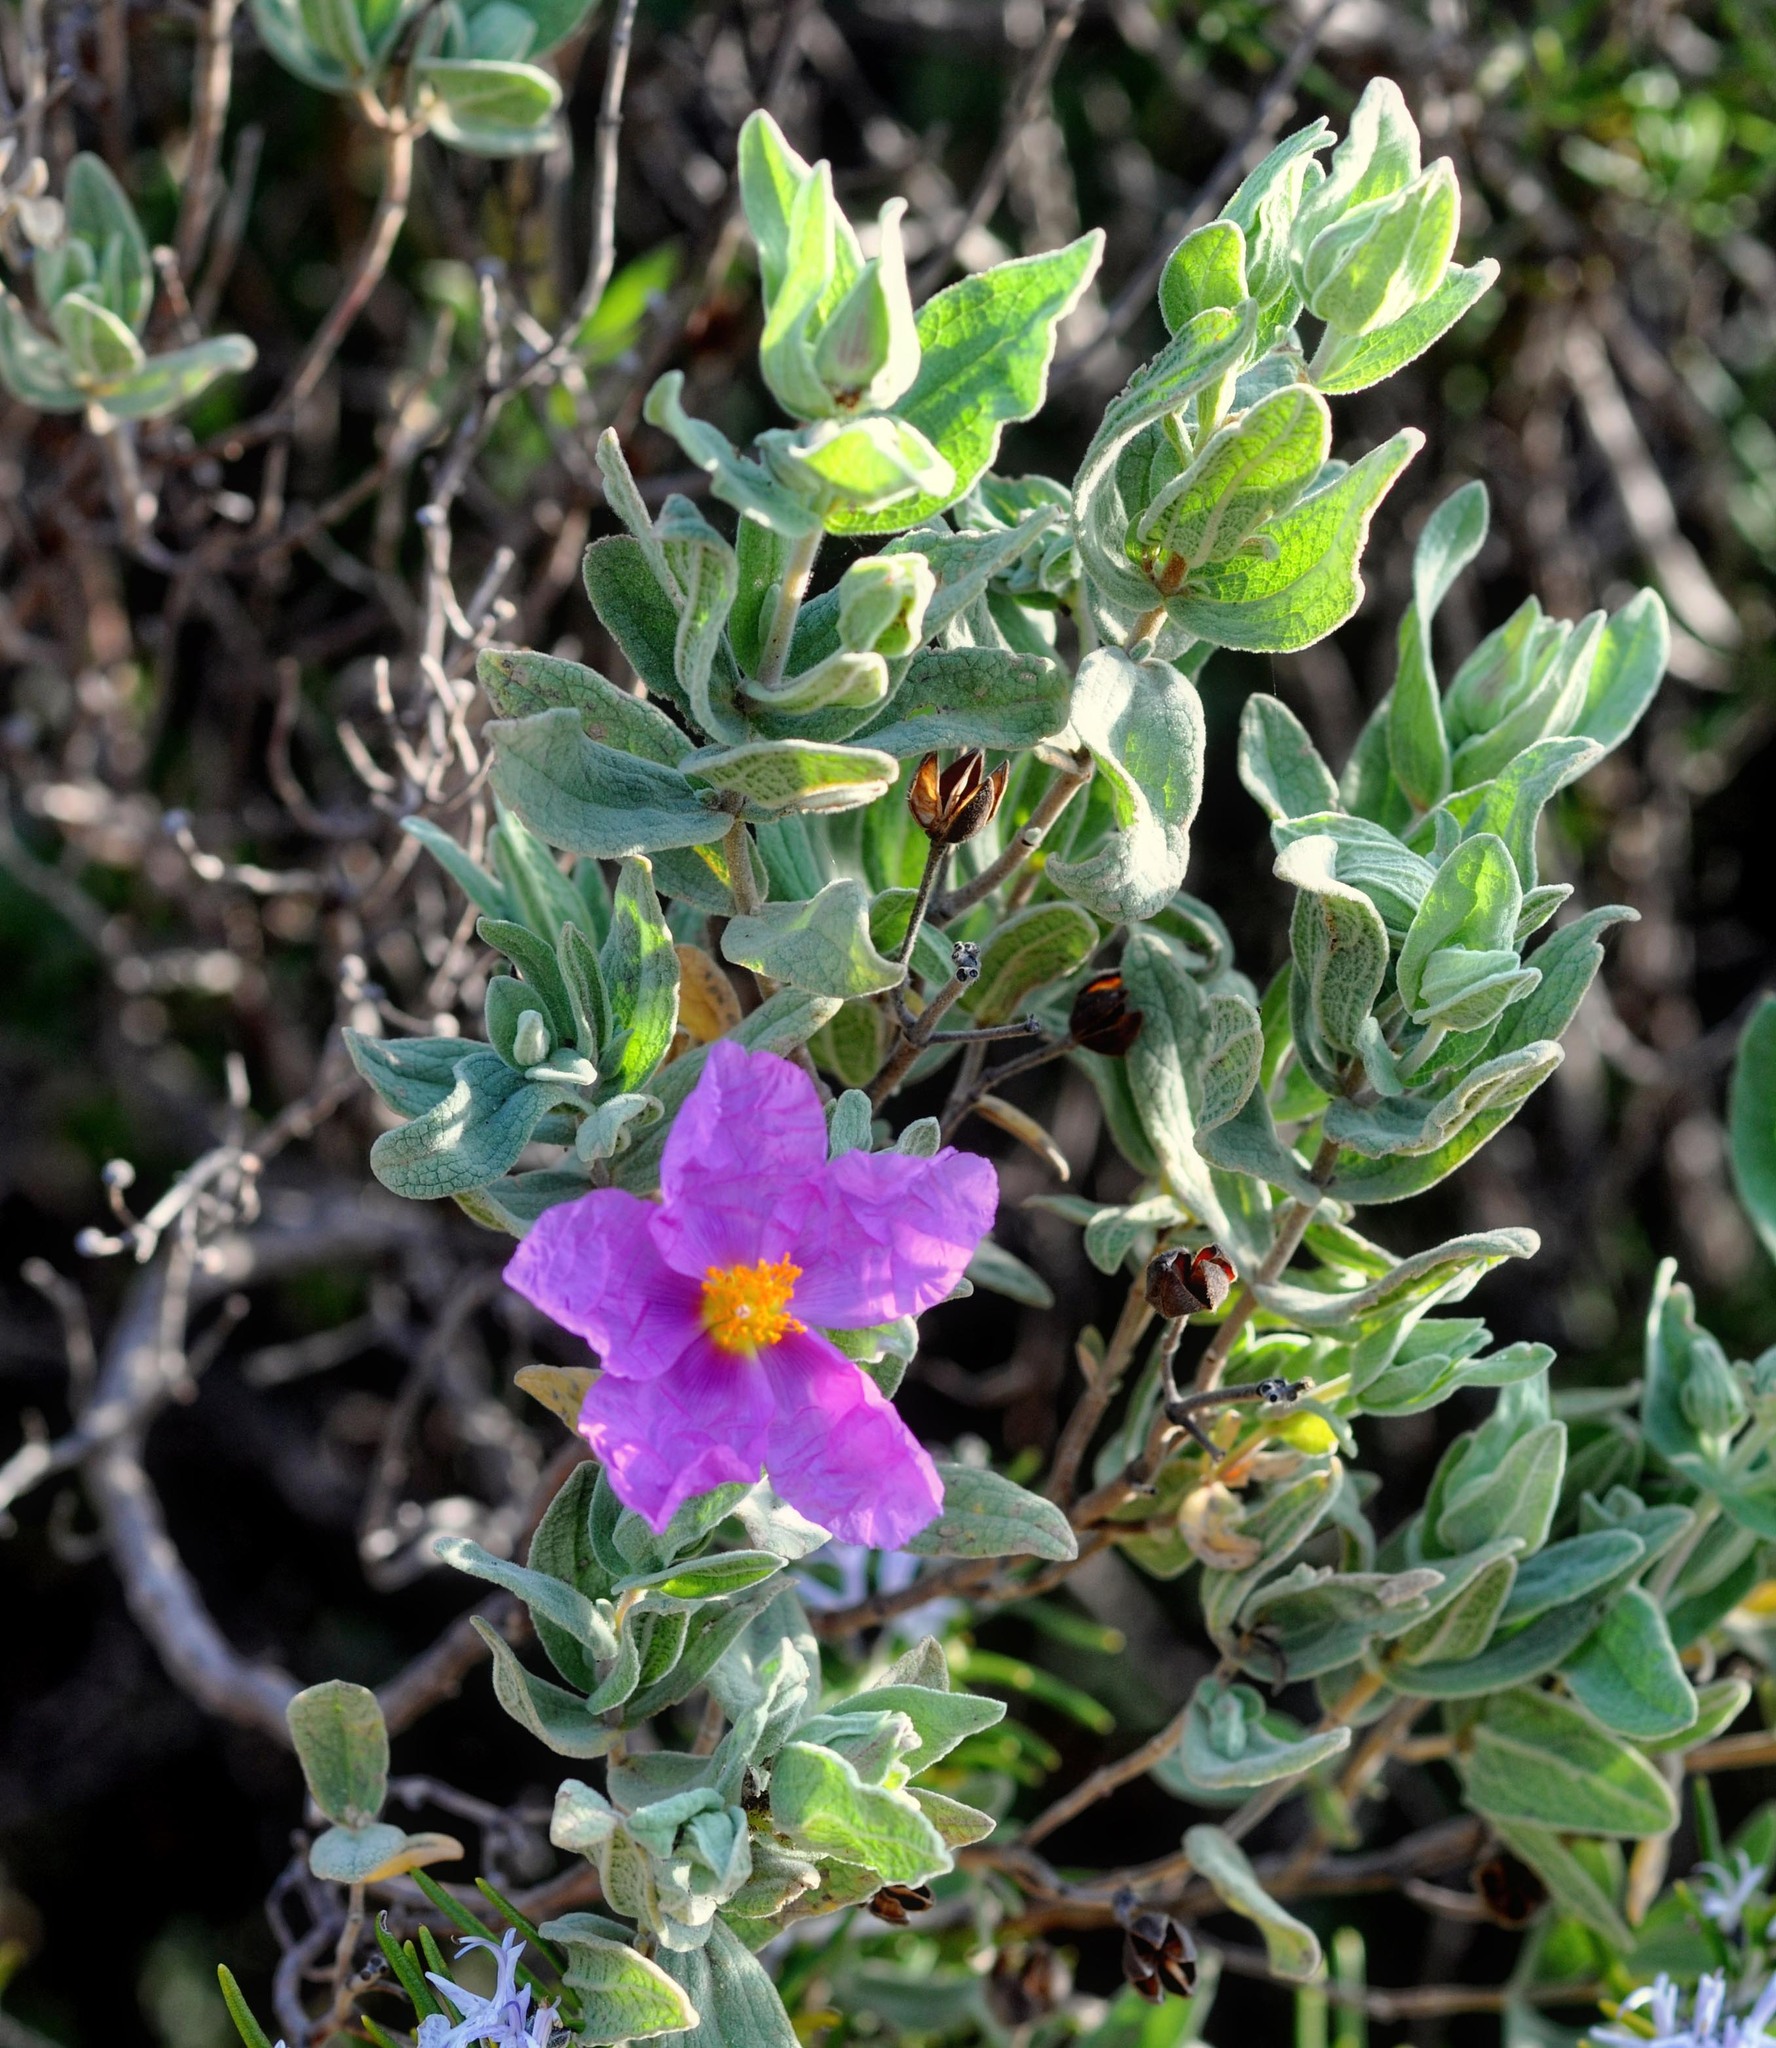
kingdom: Plantae
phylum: Tracheophyta
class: Magnoliopsida
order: Malvales
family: Cistaceae
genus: Cistus
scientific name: Cistus albidus
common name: White-leaf rock-rose
